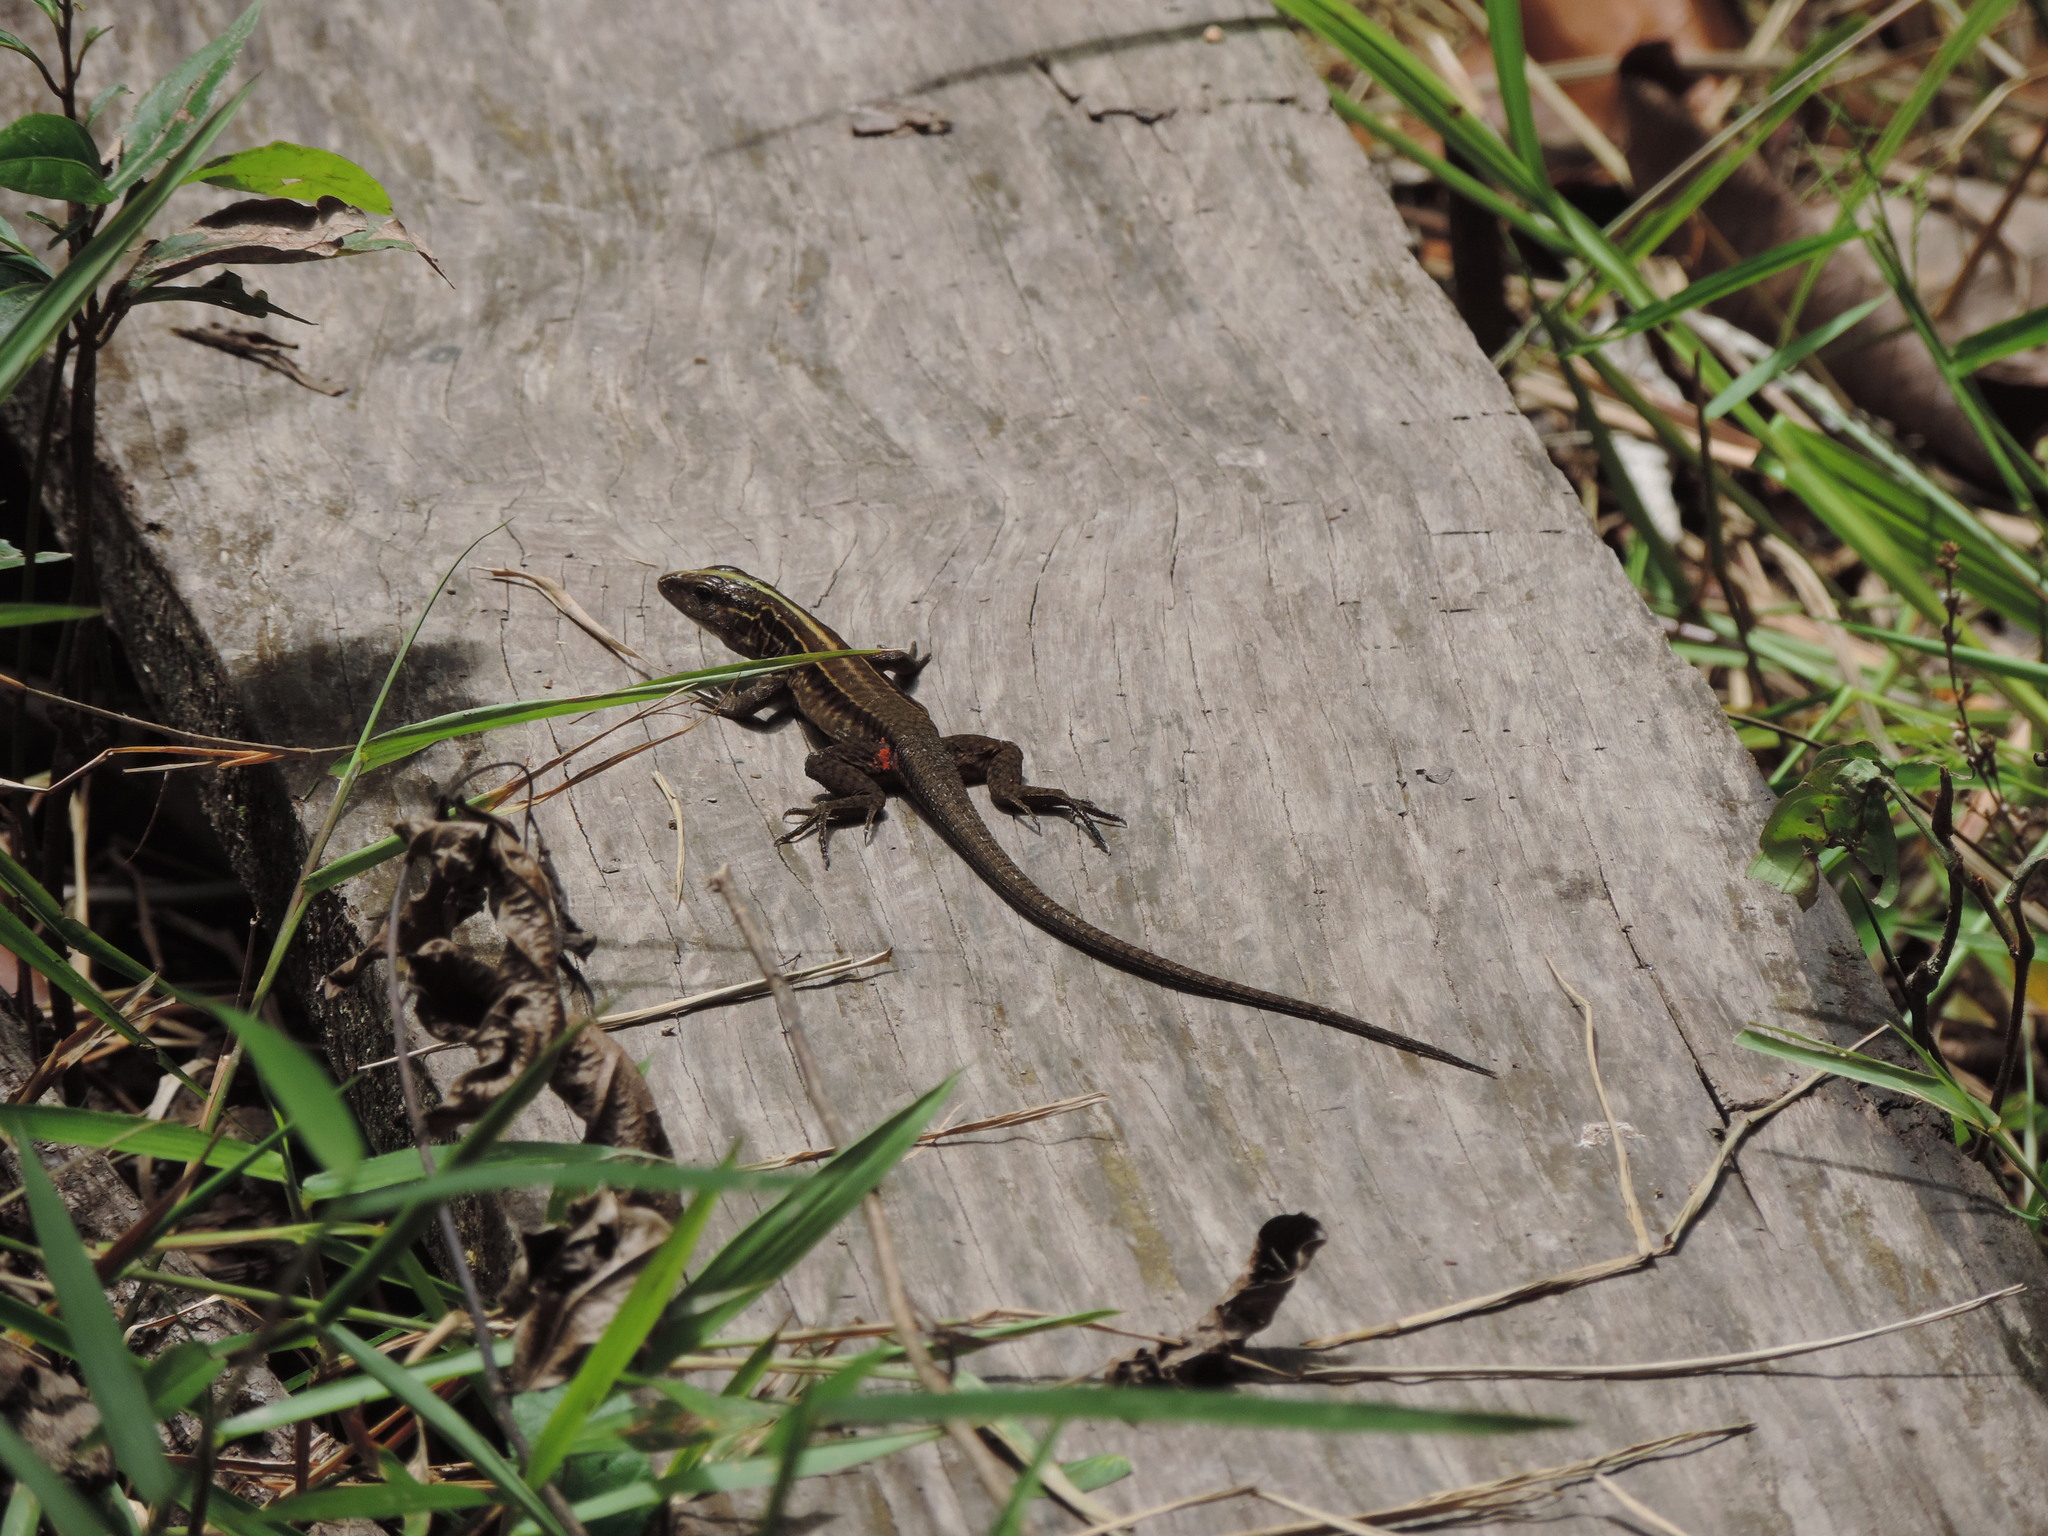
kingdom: Animalia
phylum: Chordata
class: Squamata
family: Teiidae
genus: Kentropyx
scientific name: Kentropyx altamazonica
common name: Cocha whiptail
